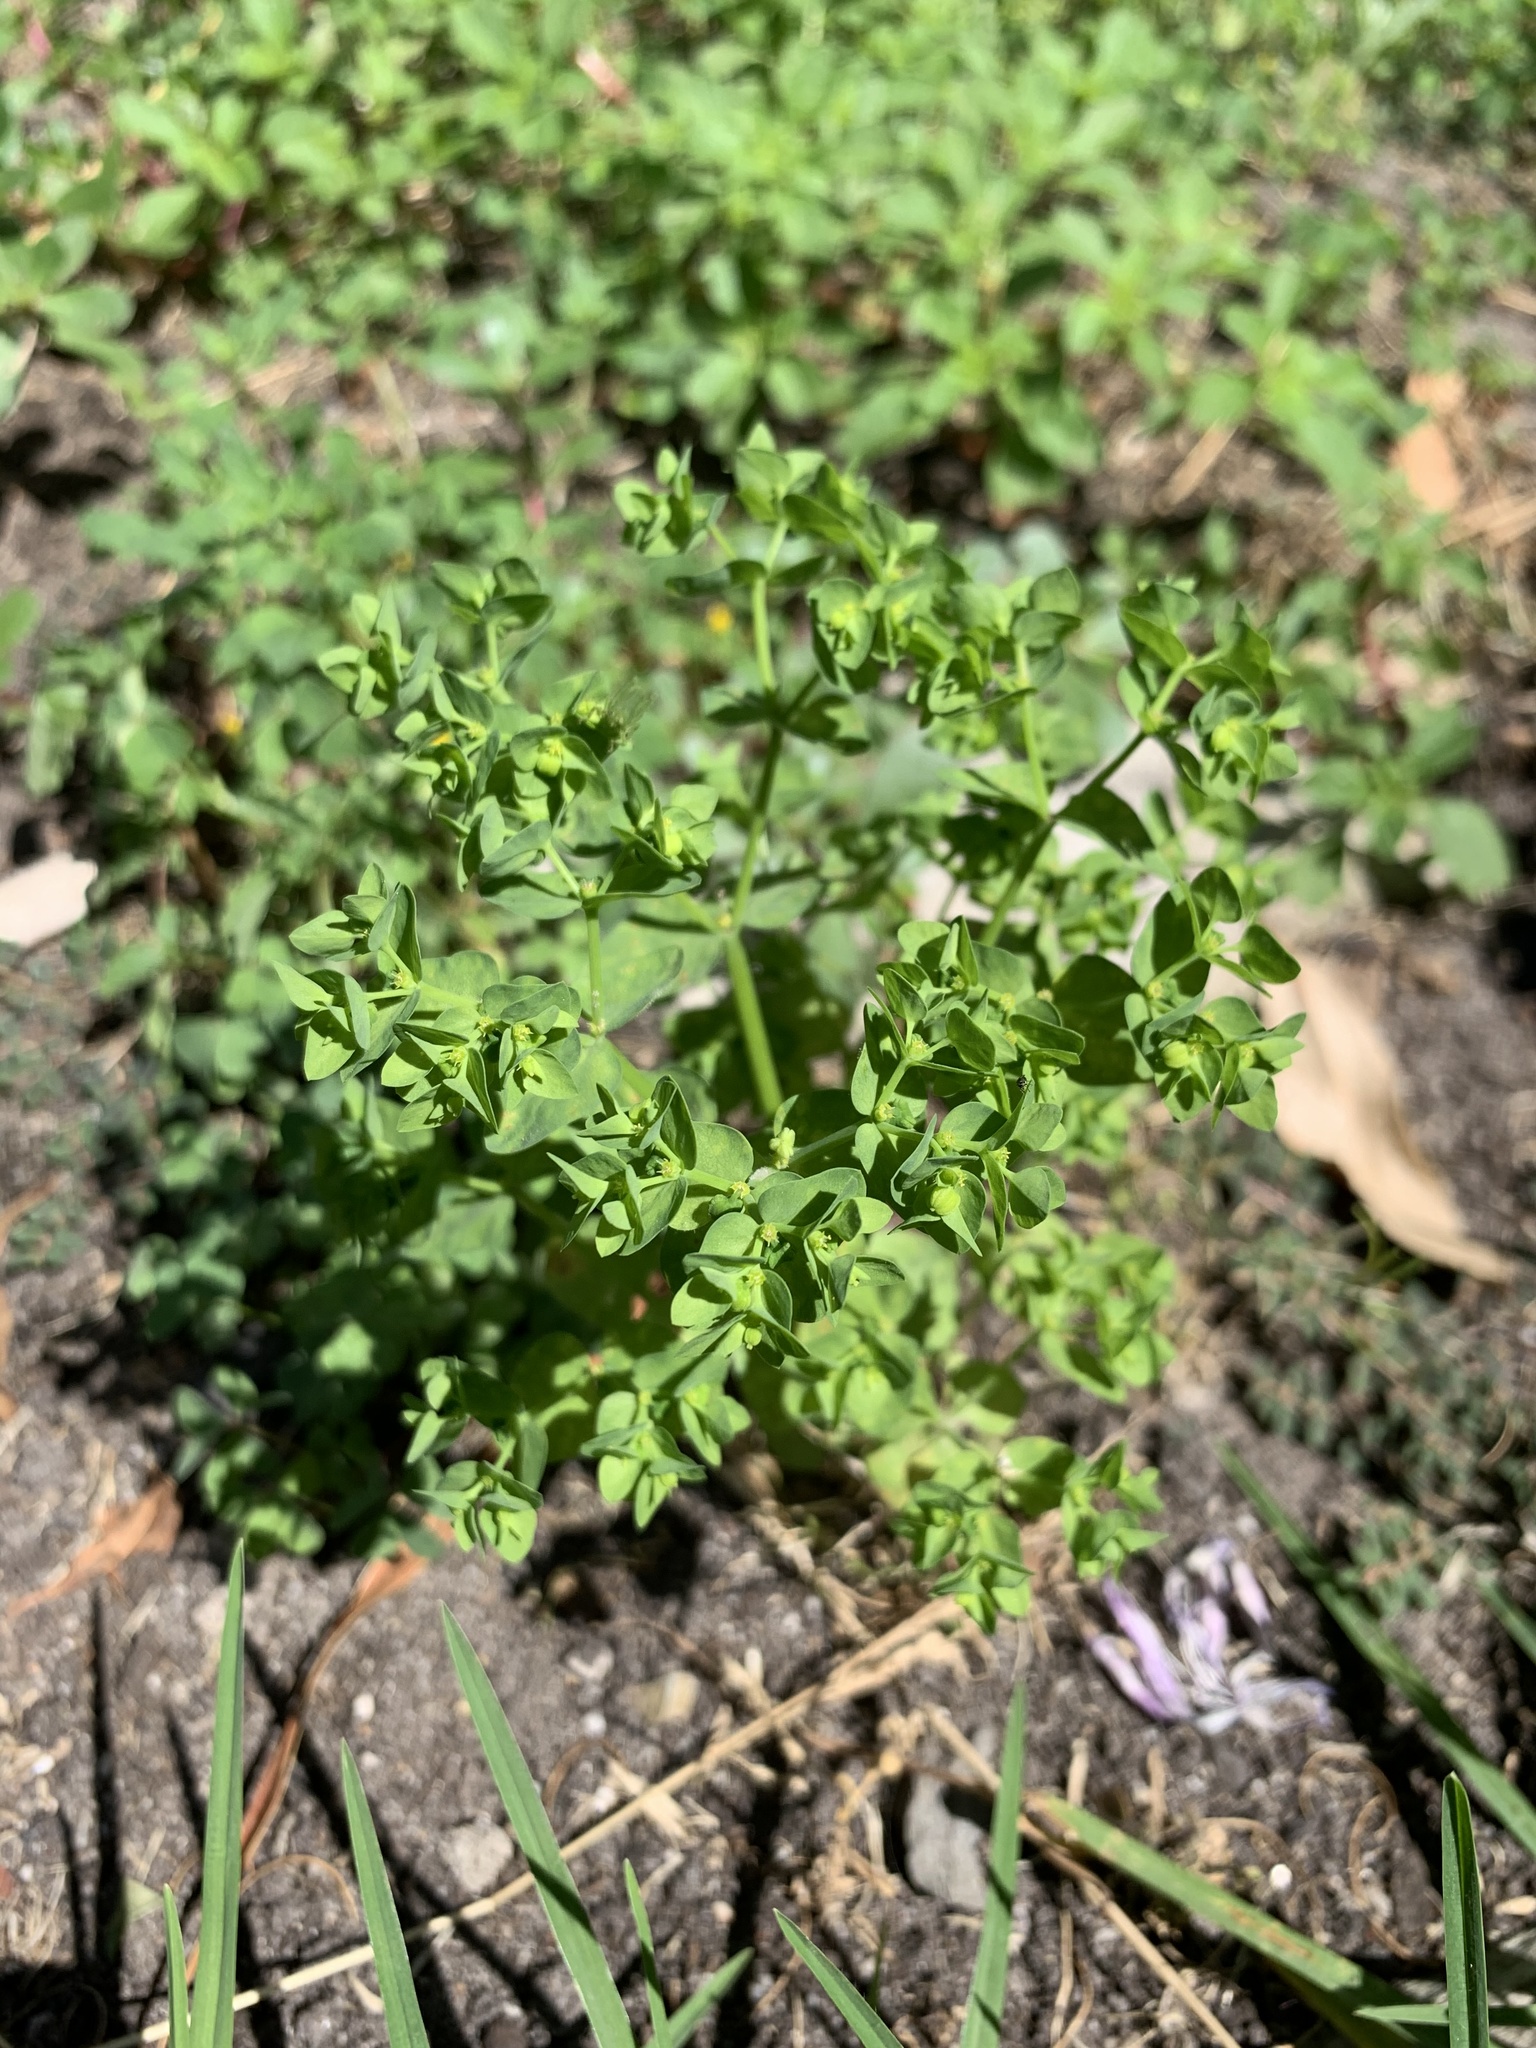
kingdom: Plantae
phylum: Tracheophyta
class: Magnoliopsida
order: Malpighiales
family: Euphorbiaceae
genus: Euphorbia
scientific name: Euphorbia peplus
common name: Petty spurge
